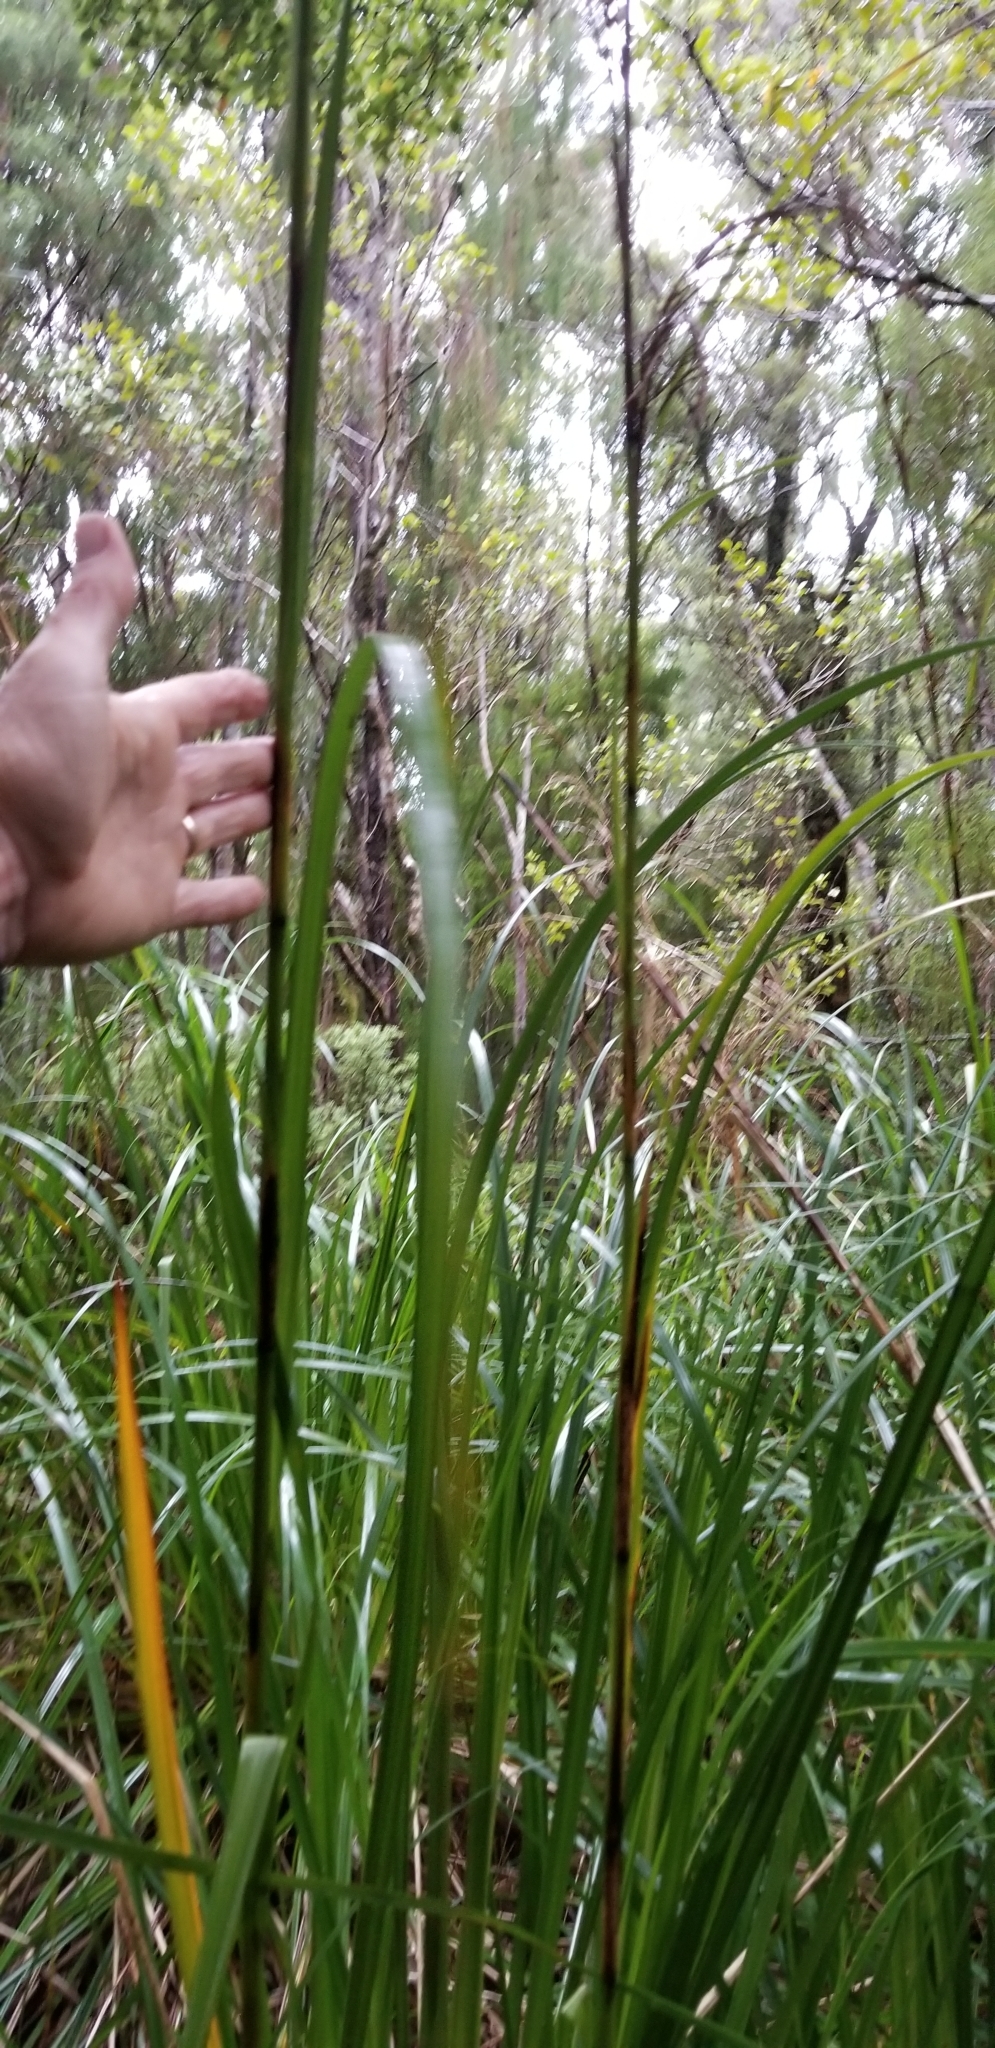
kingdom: Plantae
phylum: Tracheophyta
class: Liliopsida
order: Poales
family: Cyperaceae
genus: Gahnia
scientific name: Gahnia xanthocarpa
